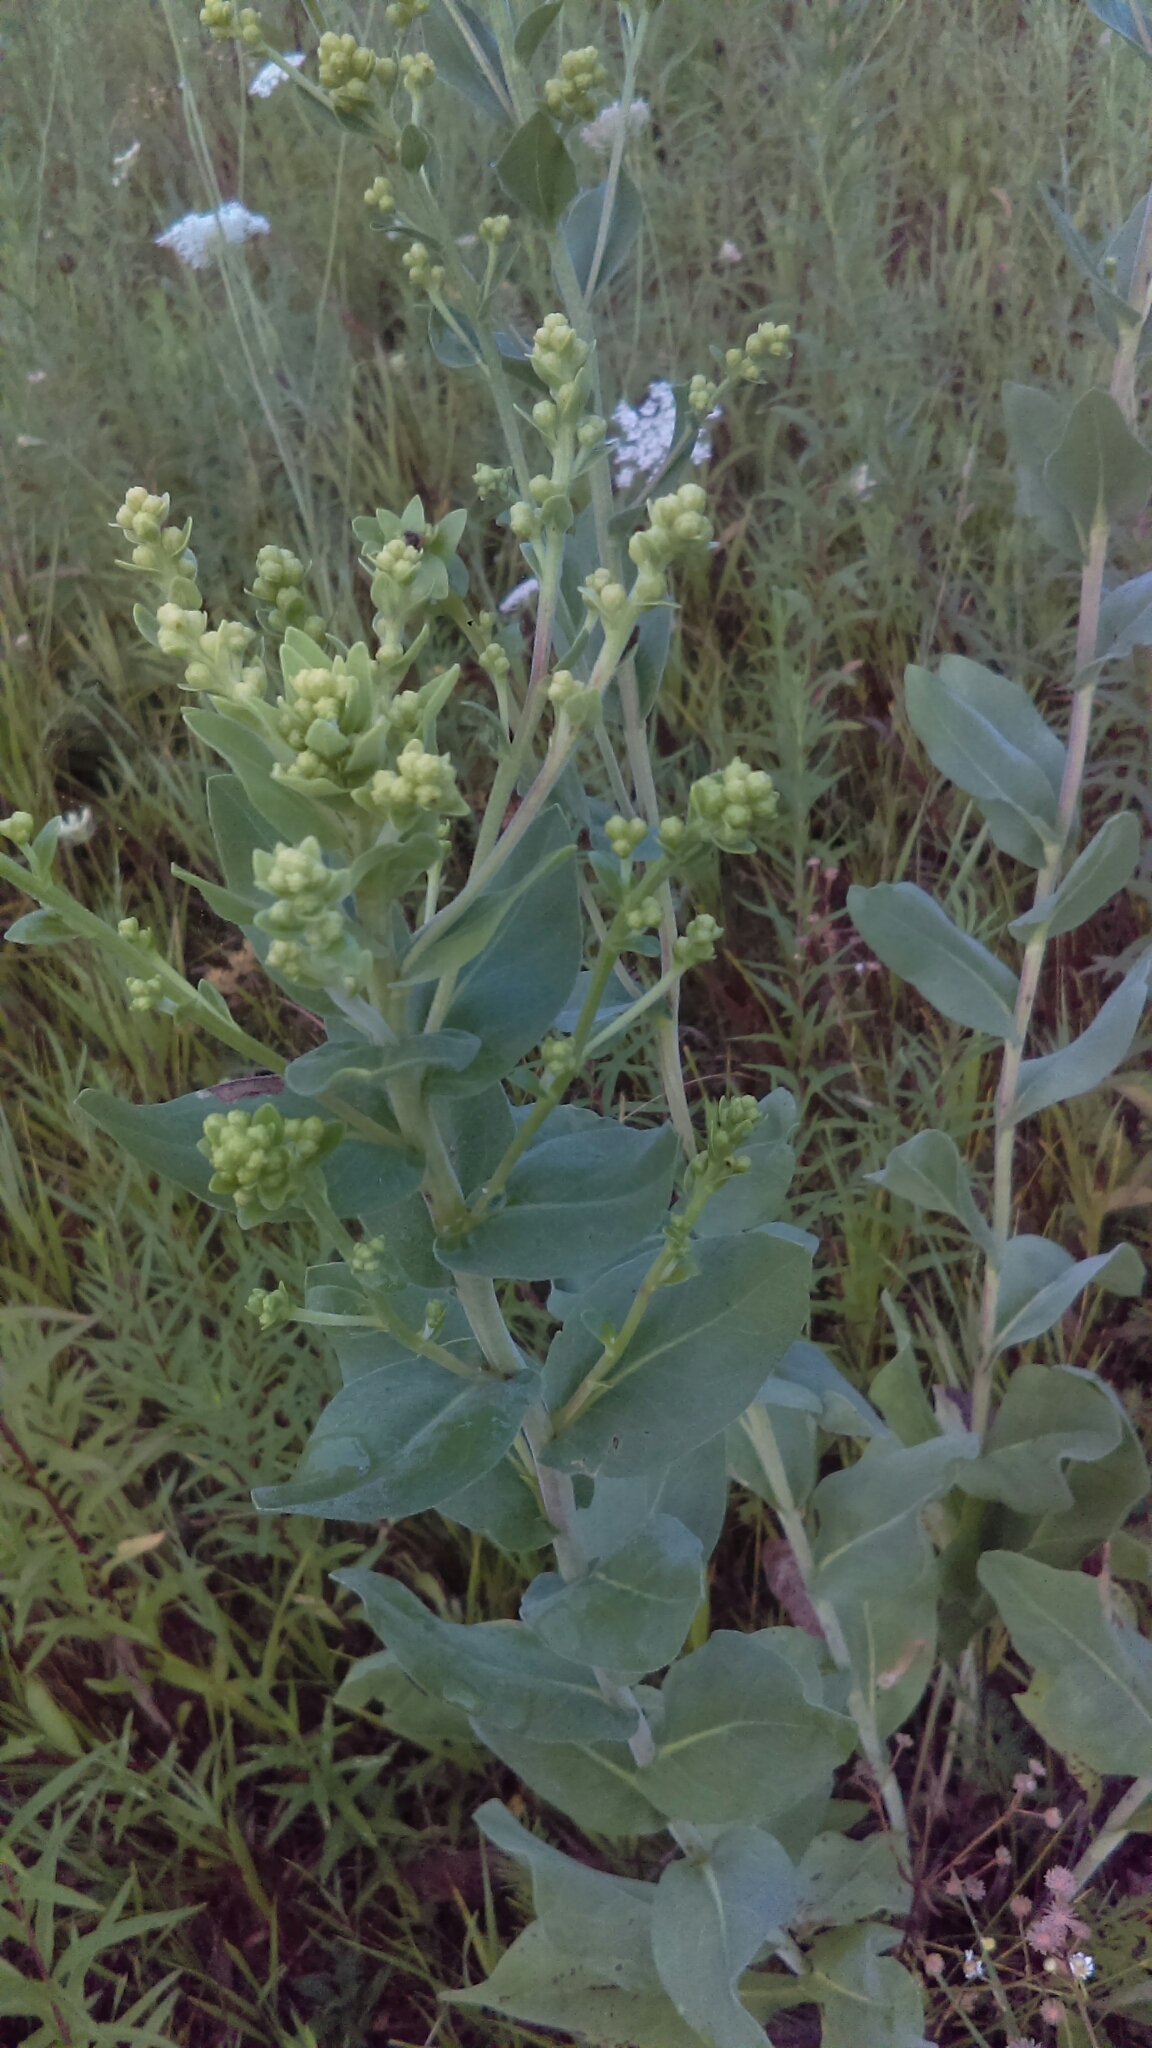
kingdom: Plantae
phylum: Tracheophyta
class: Magnoliopsida
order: Asterales
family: Asteraceae
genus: Solidago
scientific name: Solidago rigida
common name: Rigid goldenrod
